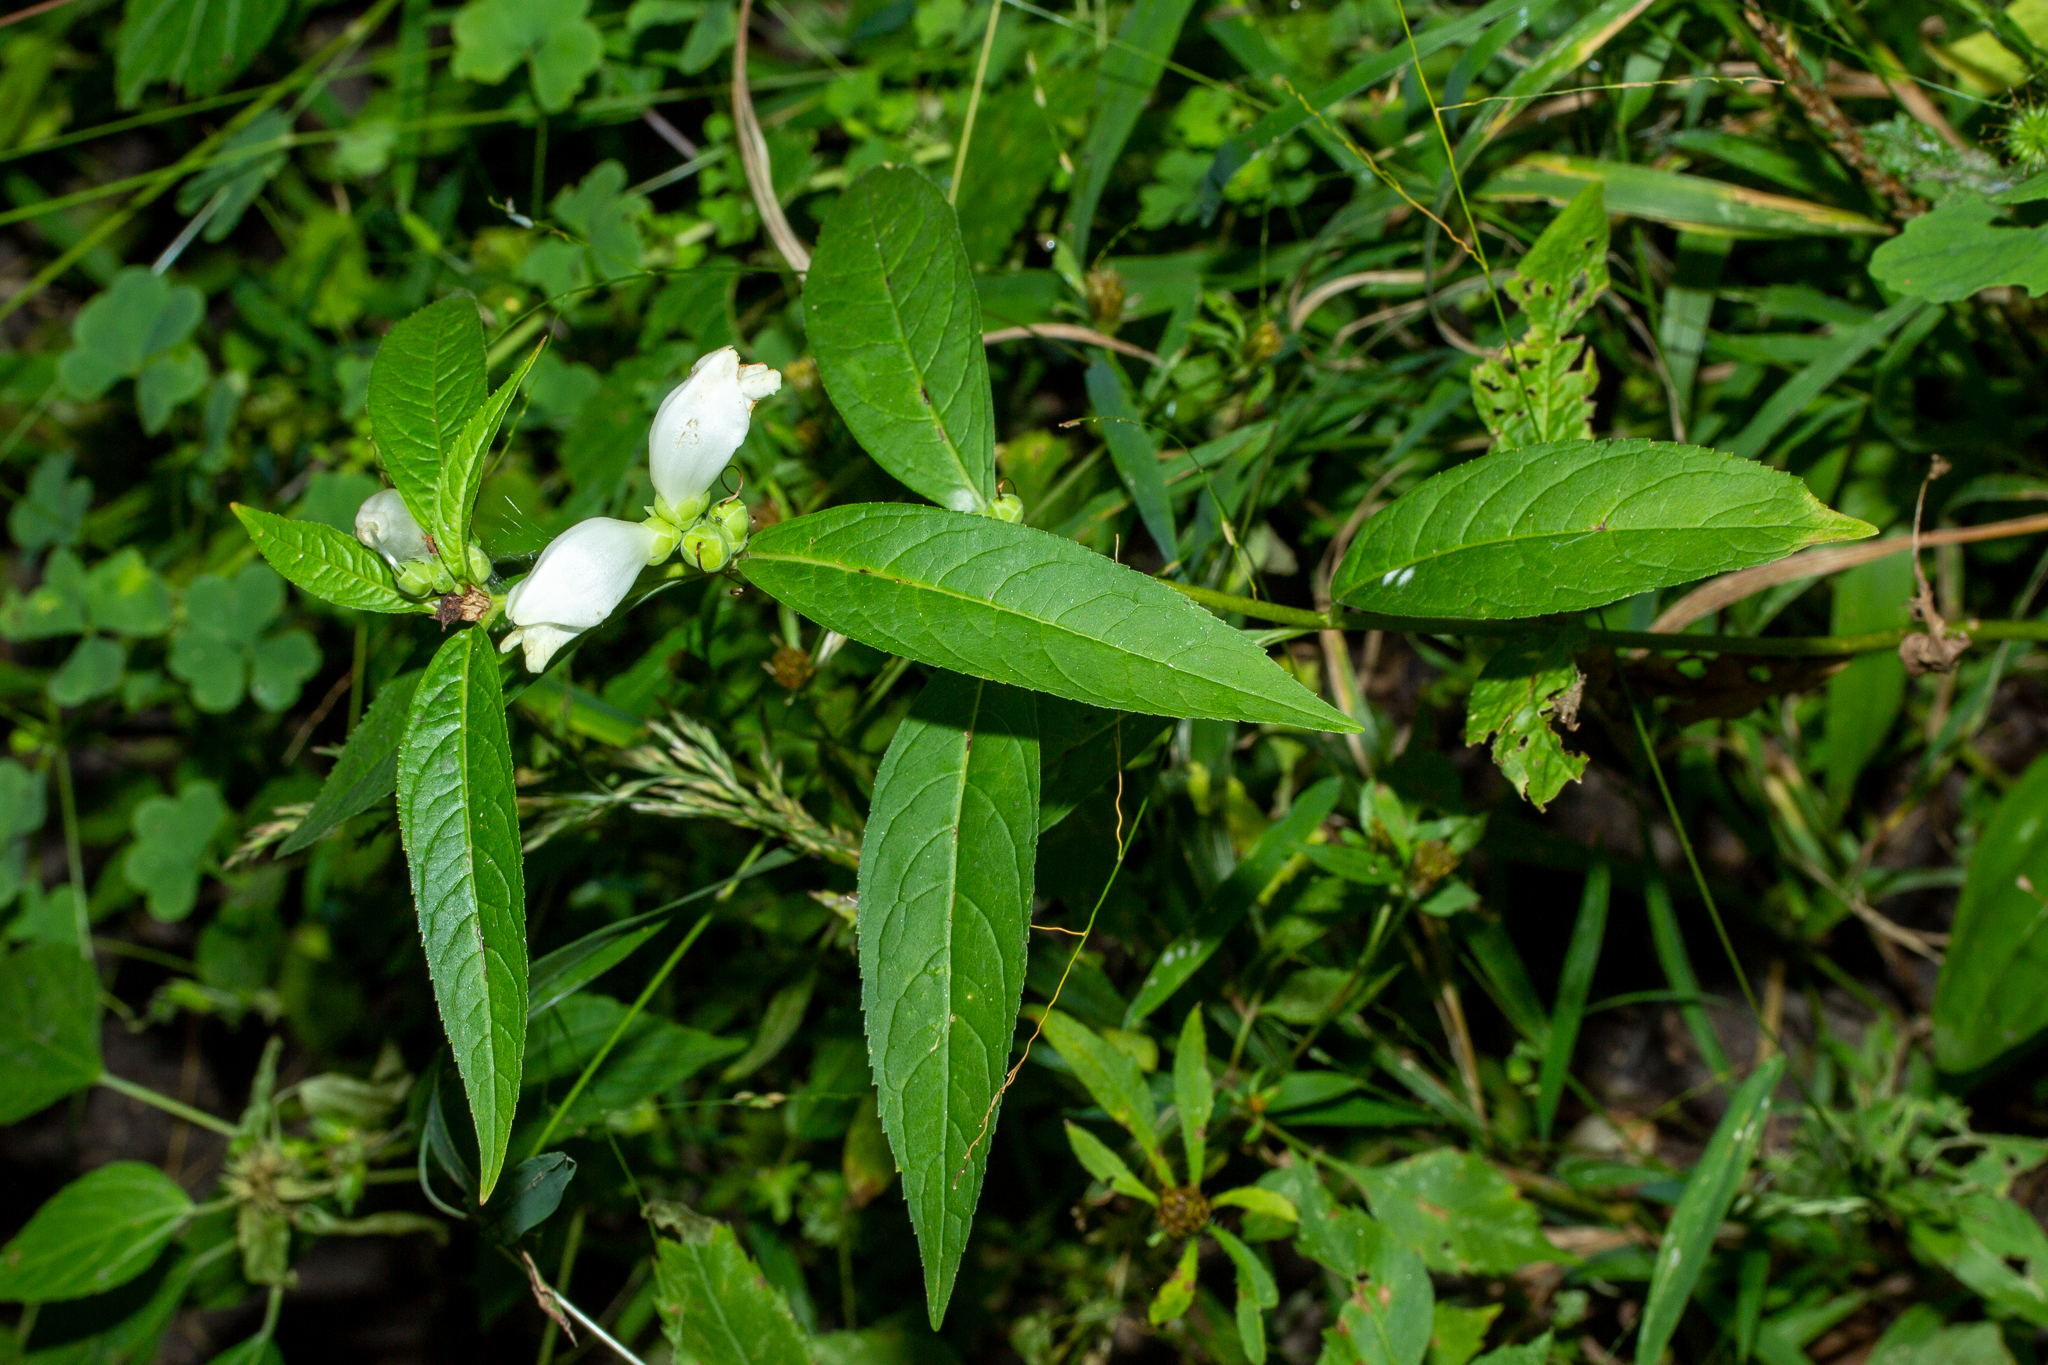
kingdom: Plantae
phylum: Tracheophyta
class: Magnoliopsida
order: Lamiales
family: Plantaginaceae
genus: Chelone
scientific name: Chelone glabra
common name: Snakehead
